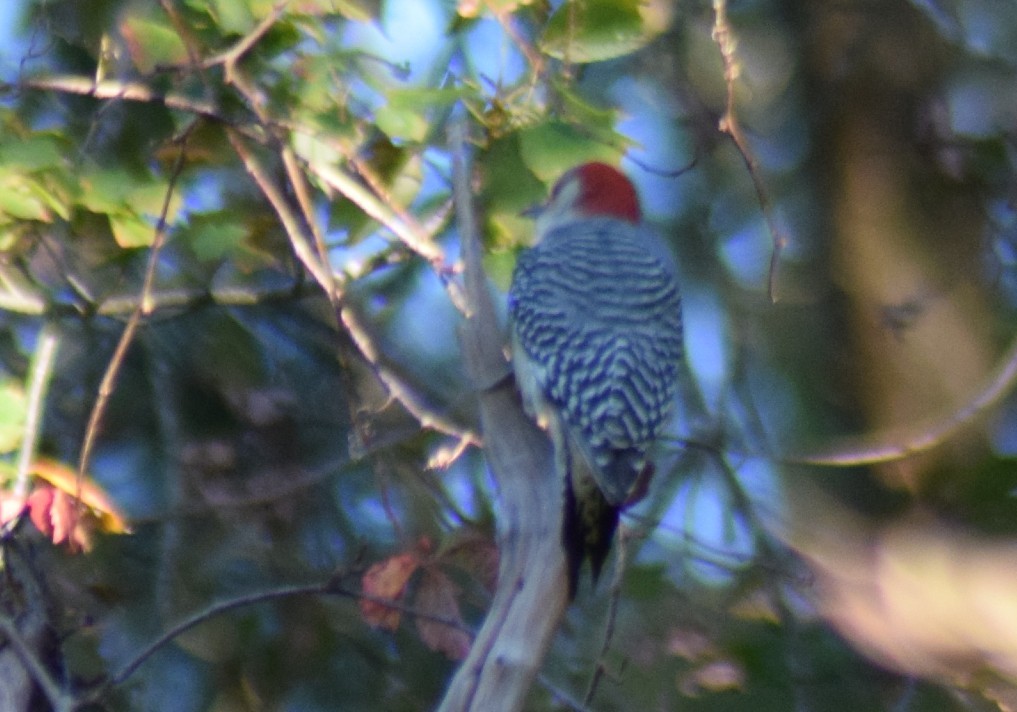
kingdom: Animalia
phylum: Chordata
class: Aves
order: Piciformes
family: Picidae
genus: Melanerpes
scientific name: Melanerpes carolinus
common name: Red-bellied woodpecker
